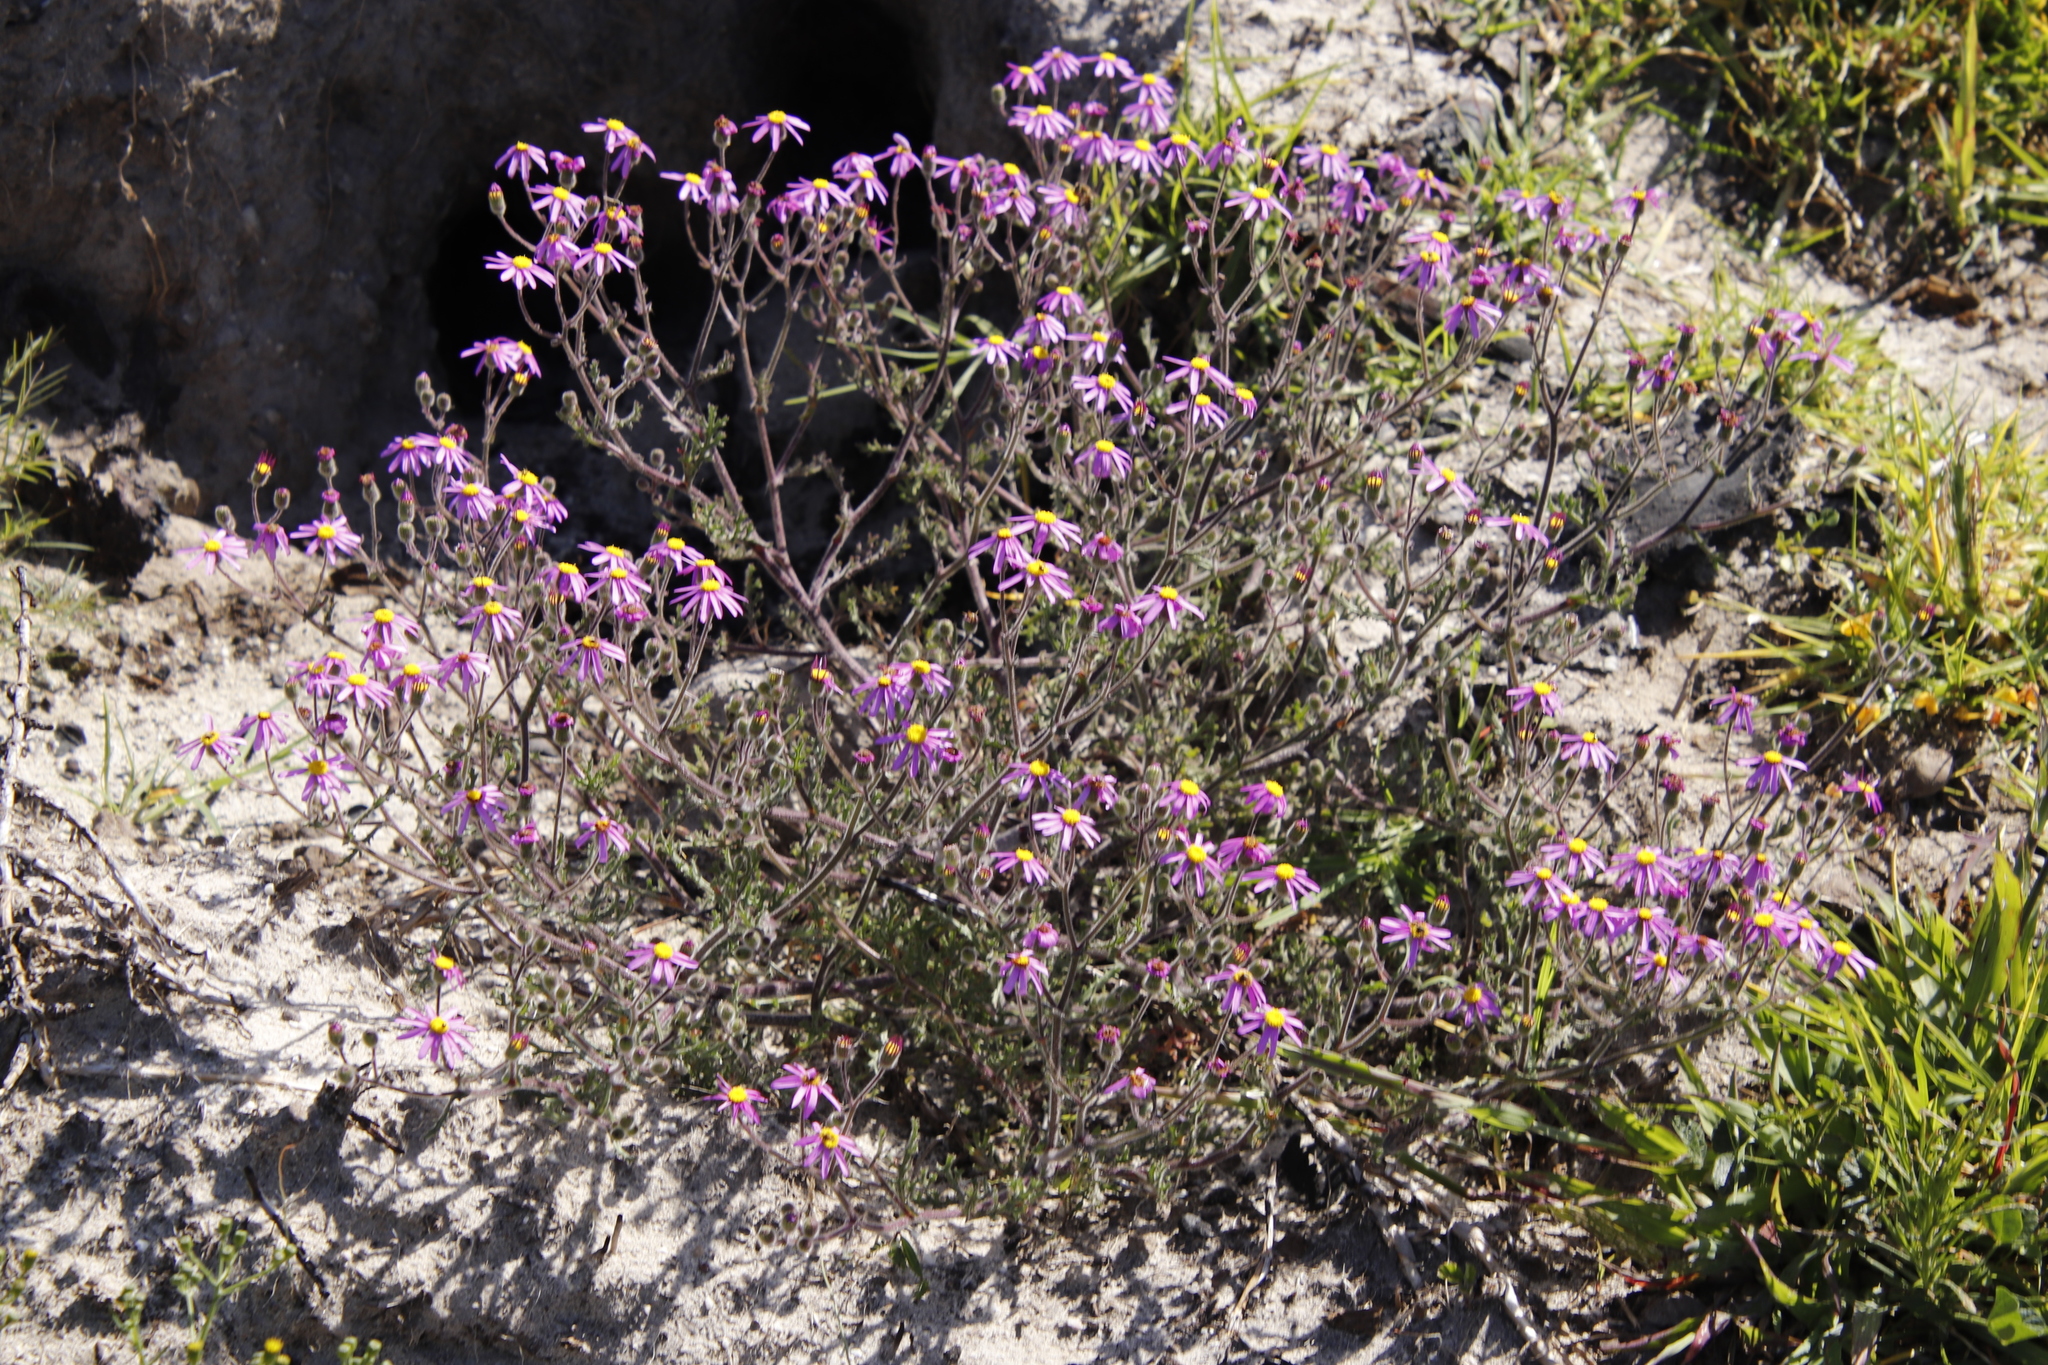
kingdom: Plantae
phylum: Tracheophyta
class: Magnoliopsida
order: Asterales
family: Asteraceae
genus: Senecio
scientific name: Senecio arenarius
